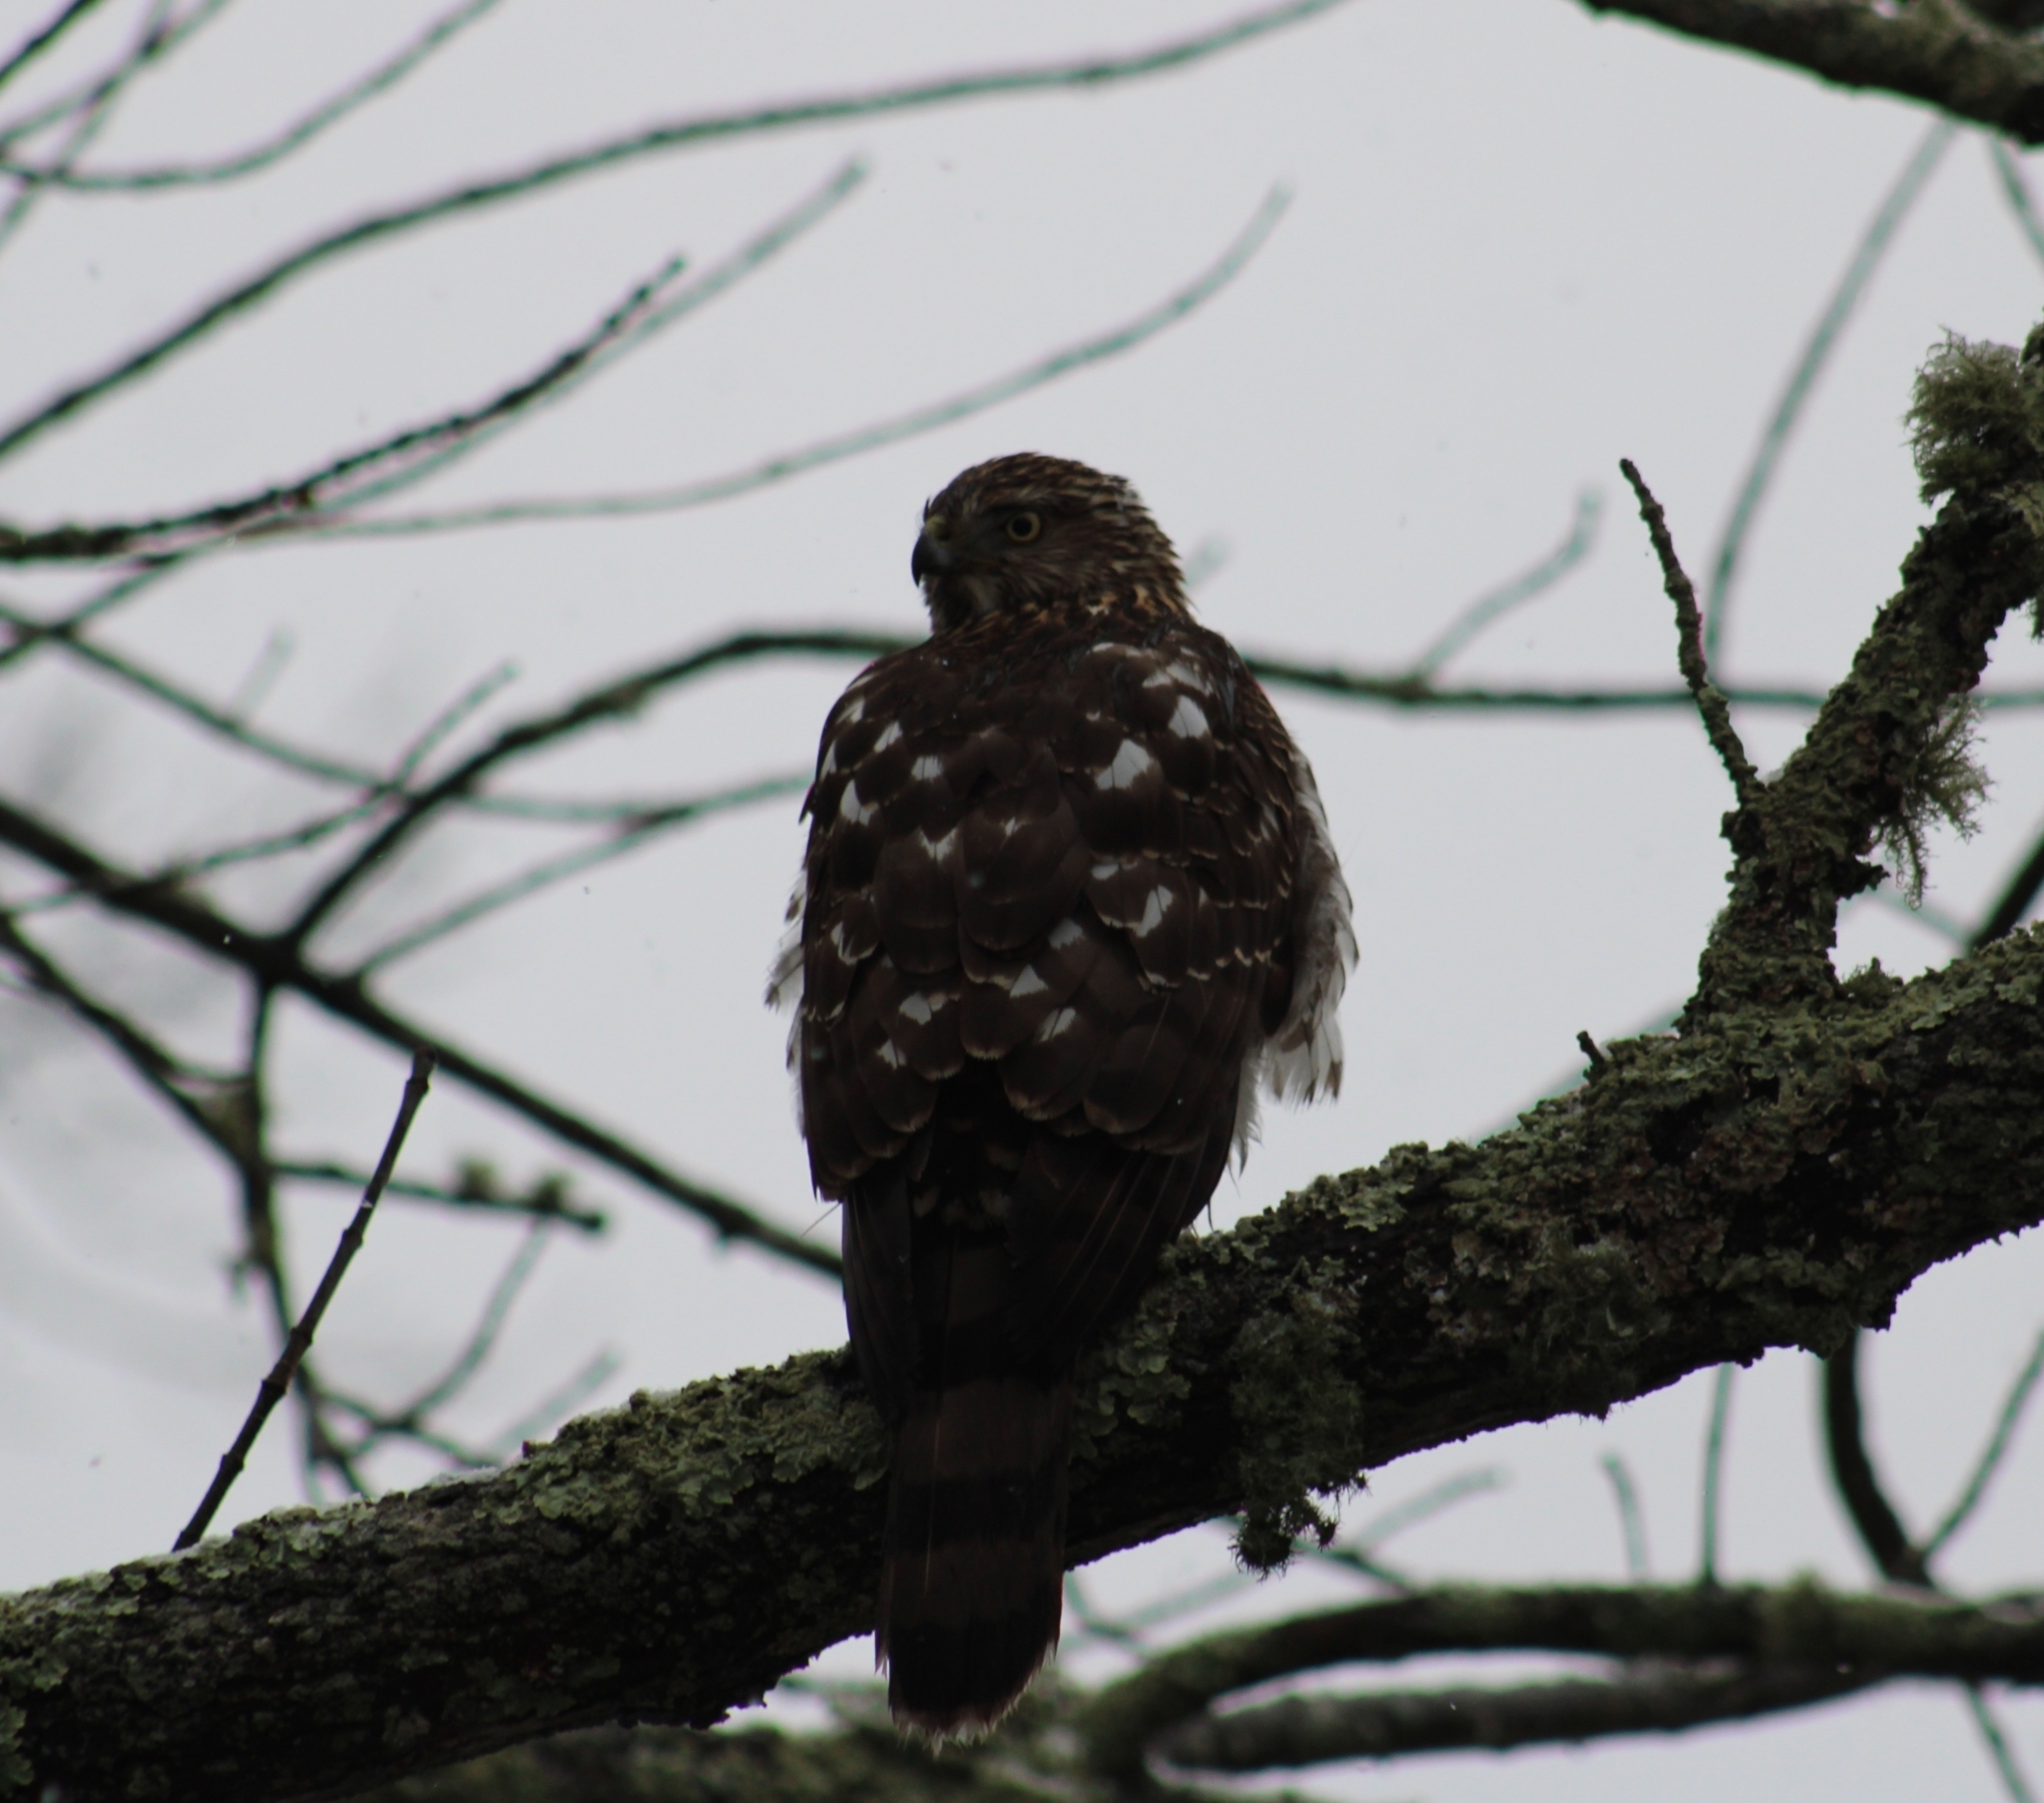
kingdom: Animalia
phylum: Chordata
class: Aves
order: Accipitriformes
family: Accipitridae
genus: Accipiter
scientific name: Accipiter cooperii
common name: Cooper's hawk
